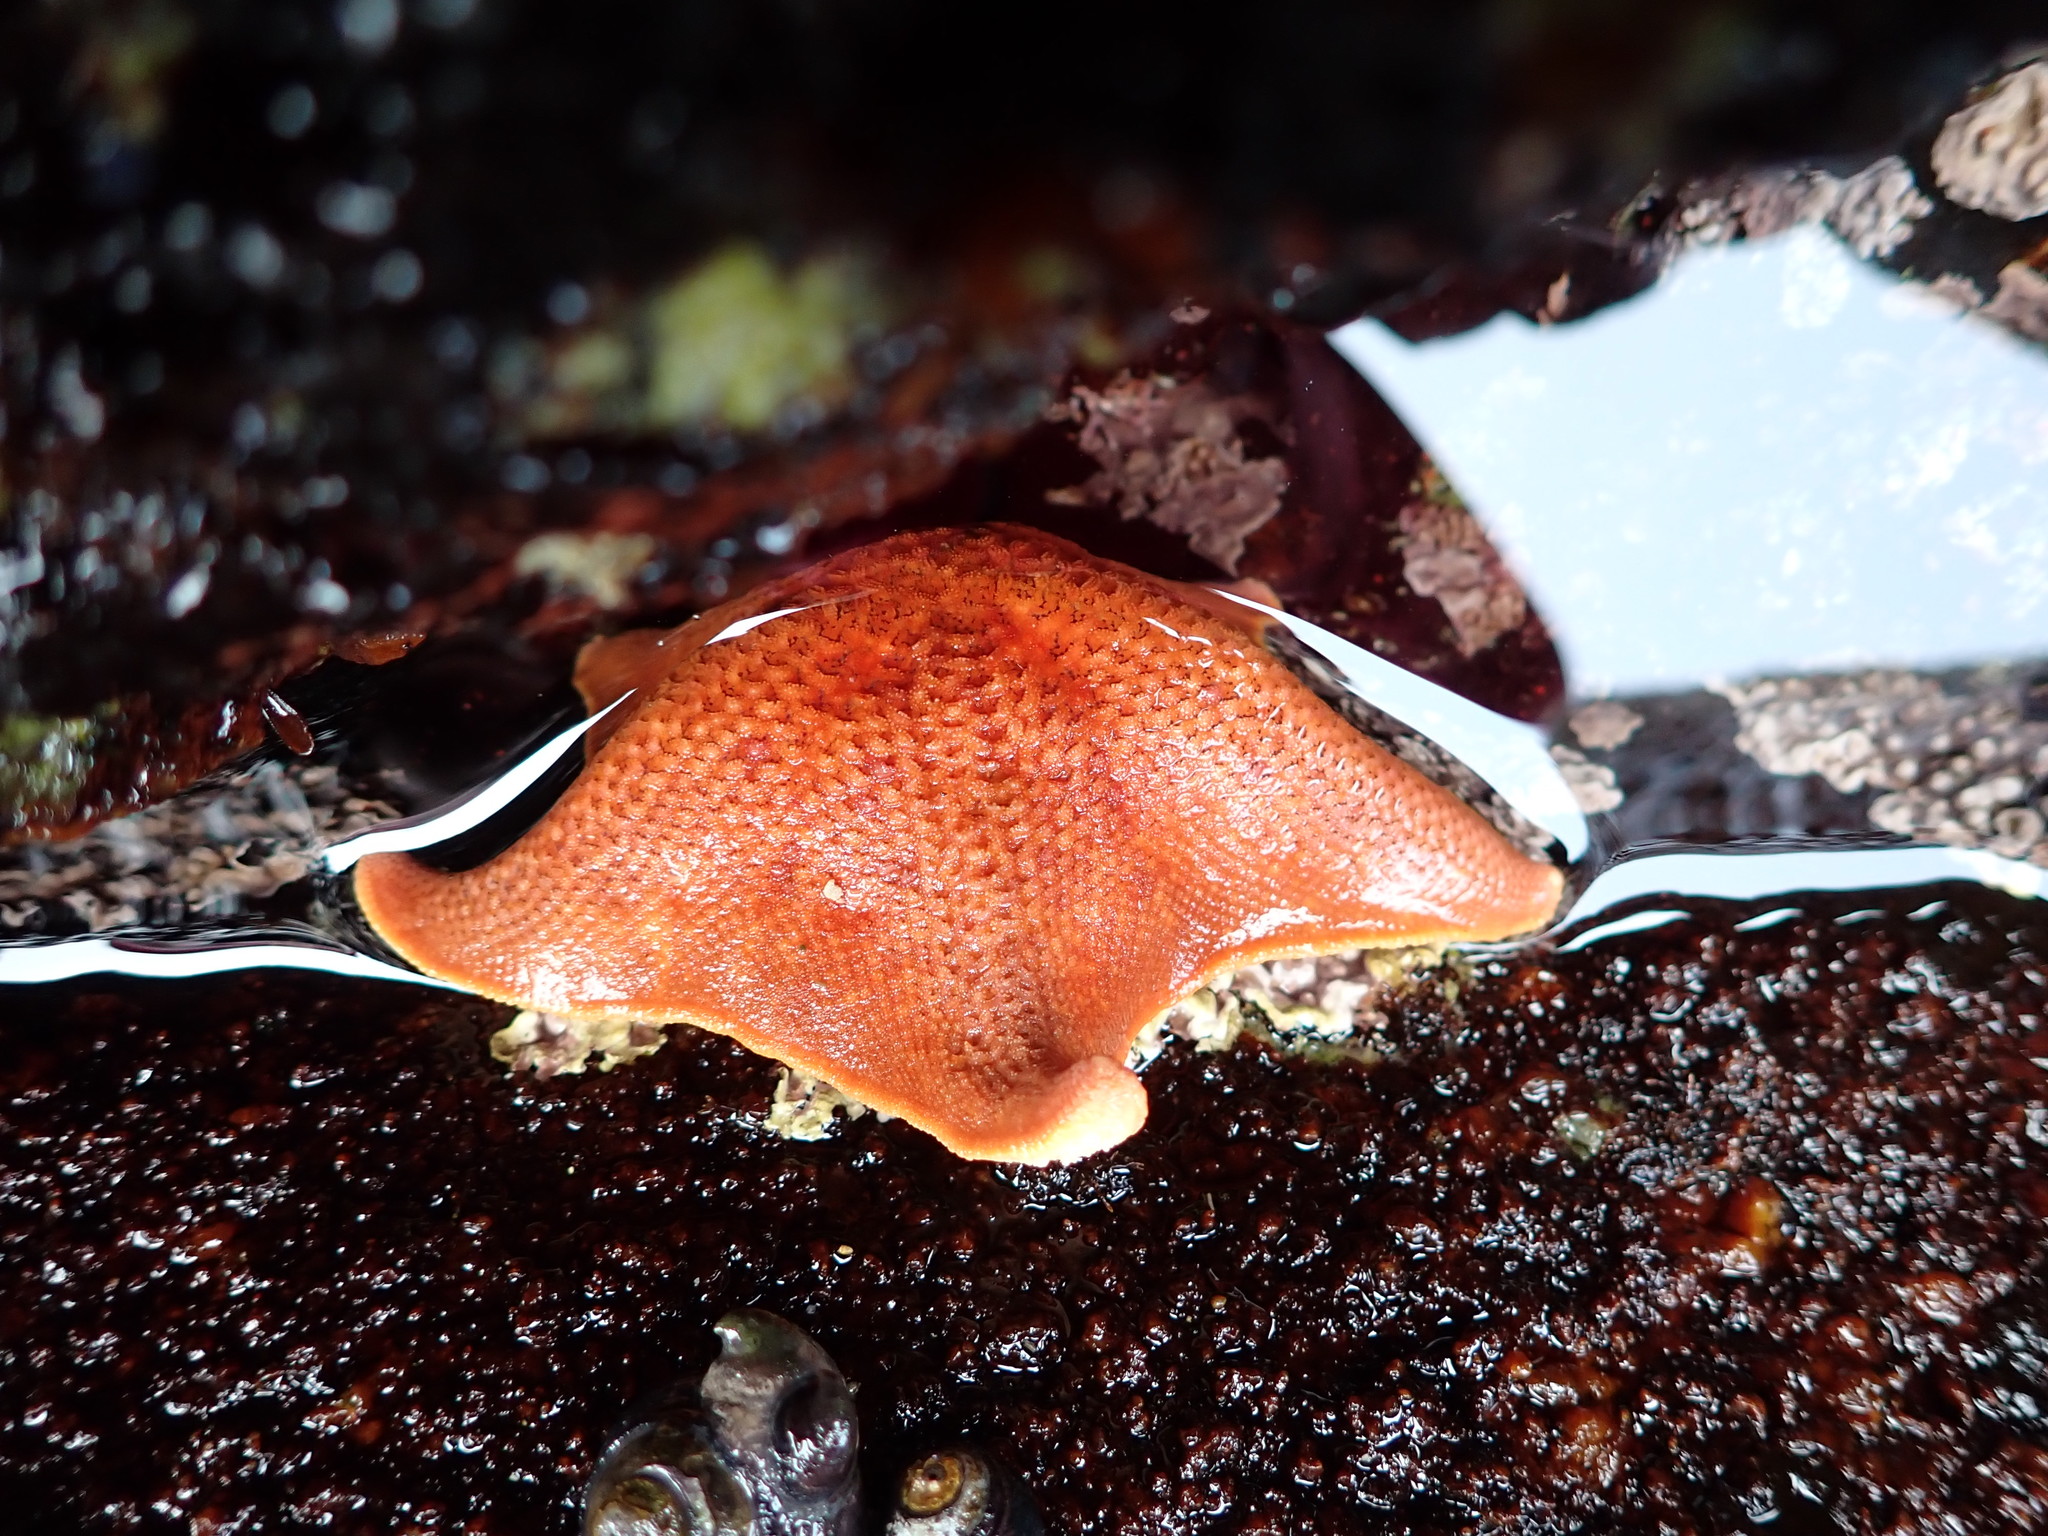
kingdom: Animalia
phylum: Echinodermata
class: Asteroidea
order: Valvatida
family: Asterinidae
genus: Patiria
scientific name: Patiria miniata
